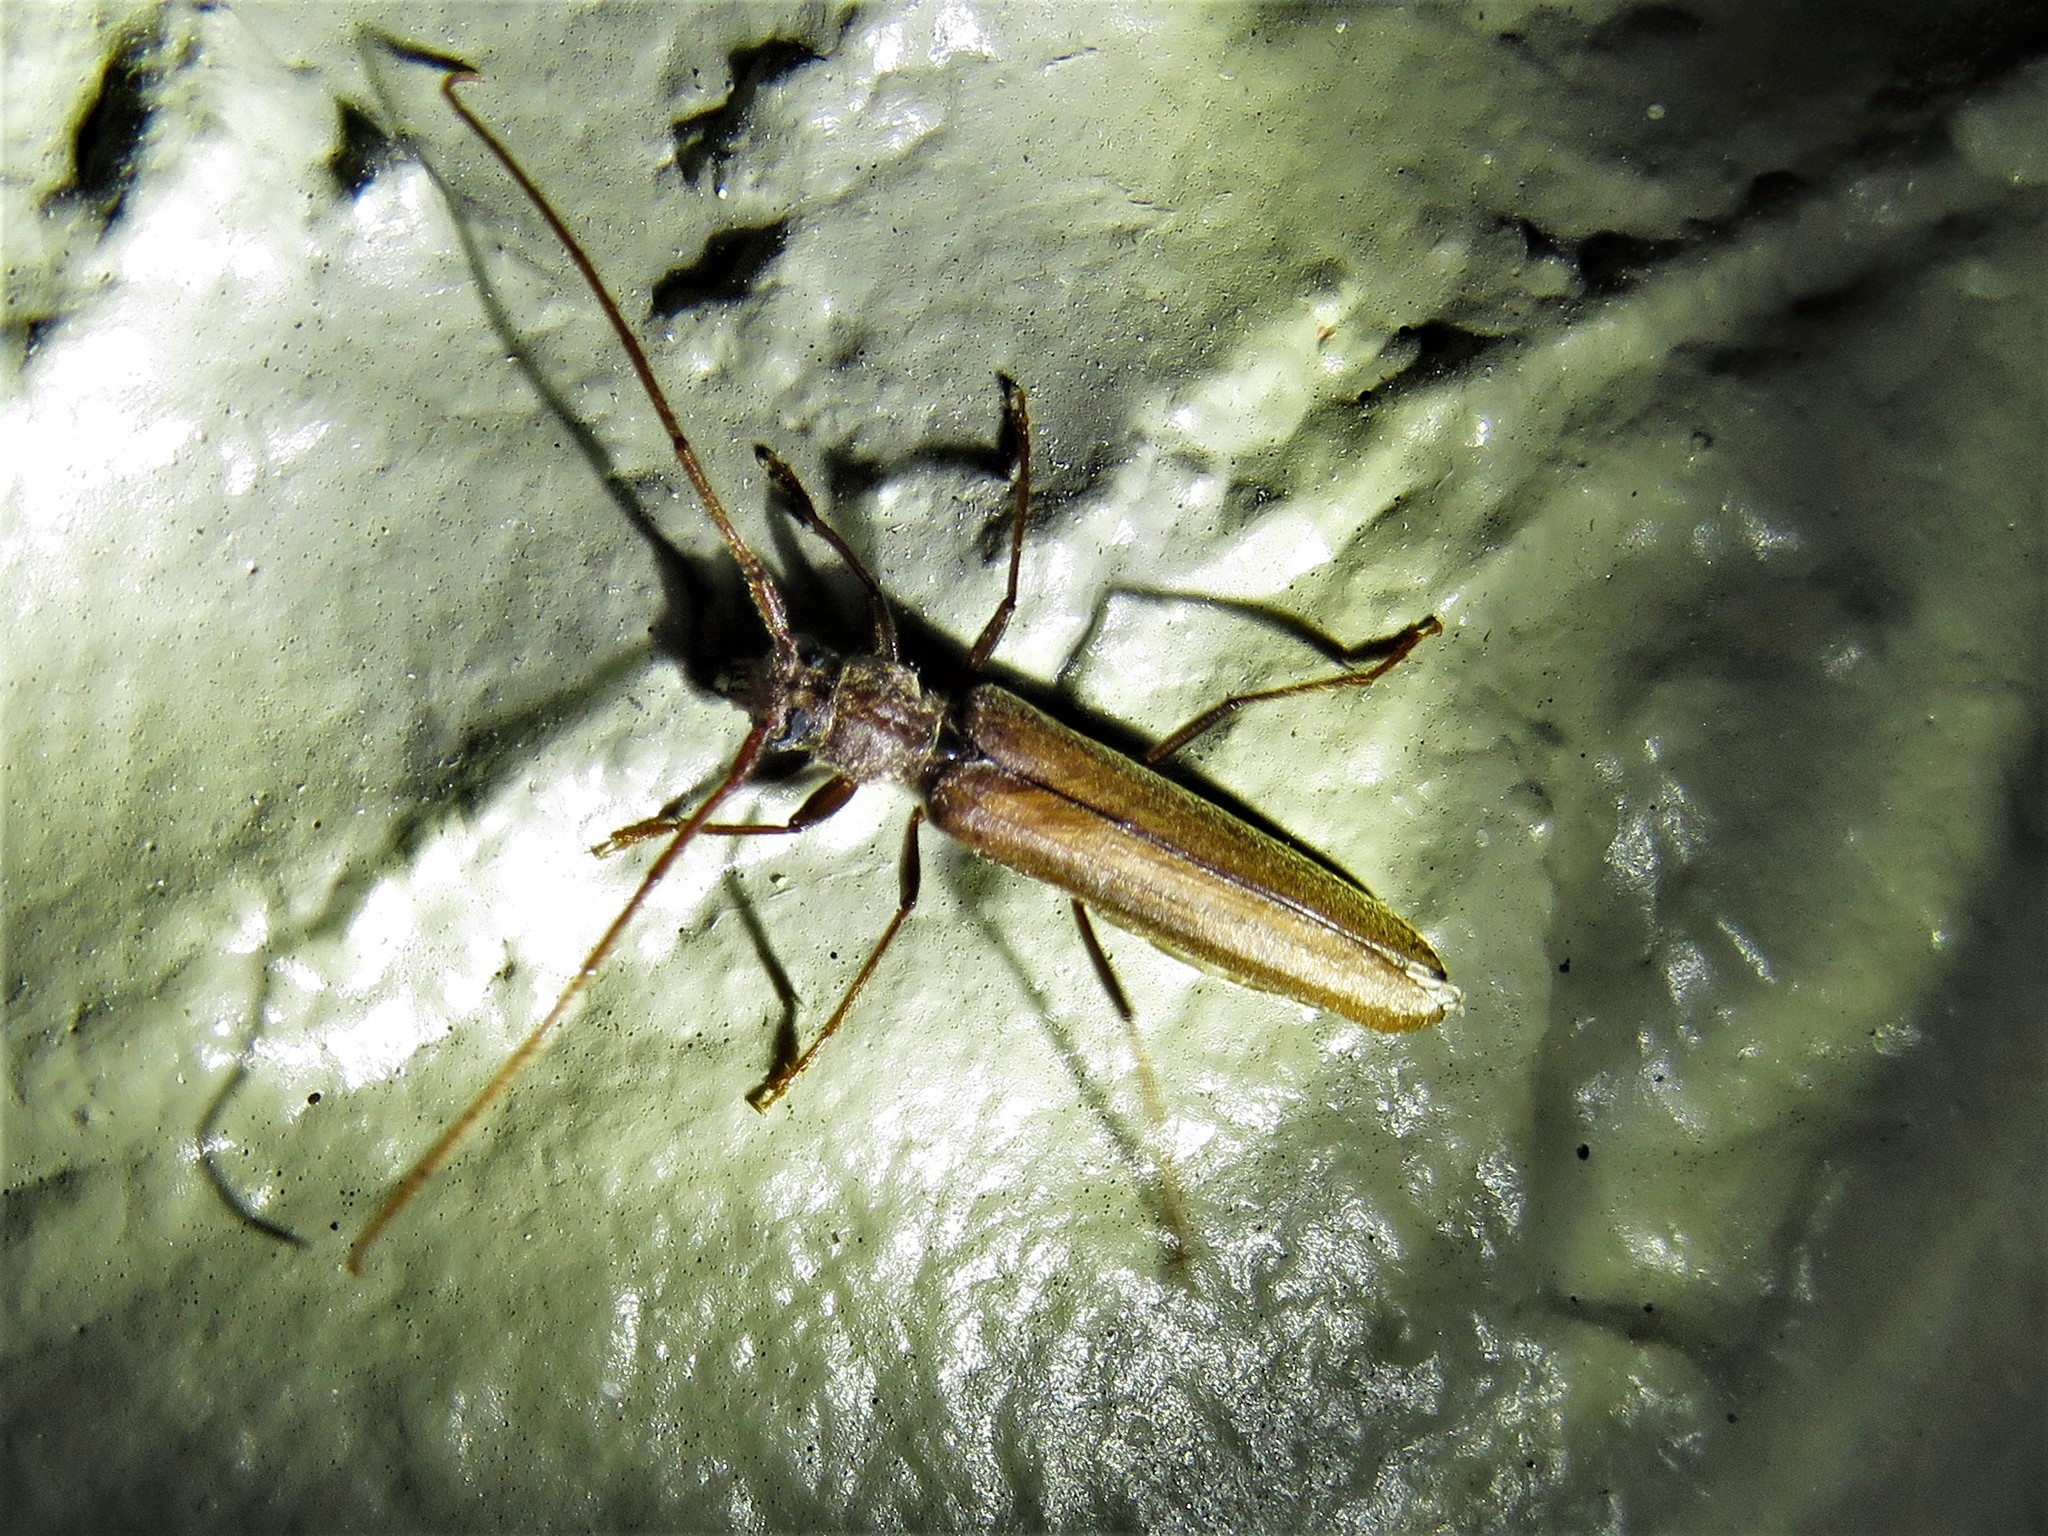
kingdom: Animalia
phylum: Arthropoda
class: Insecta
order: Coleoptera
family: Cerambycidae
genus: Oeme
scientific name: Oeme rigida
